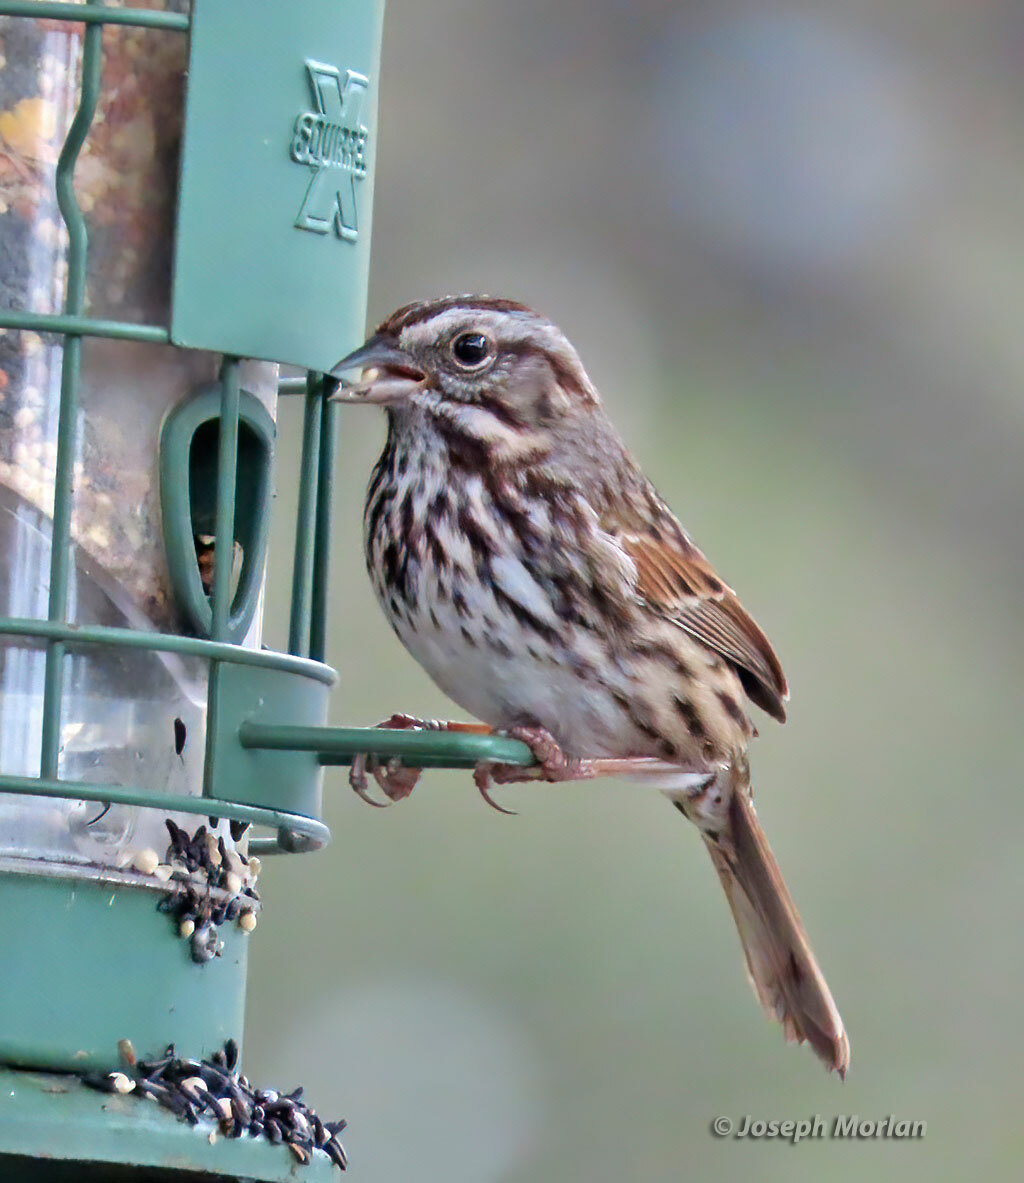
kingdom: Animalia
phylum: Chordata
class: Aves
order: Passeriformes
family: Passerellidae
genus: Melospiza
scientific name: Melospiza melodia
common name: Song sparrow
